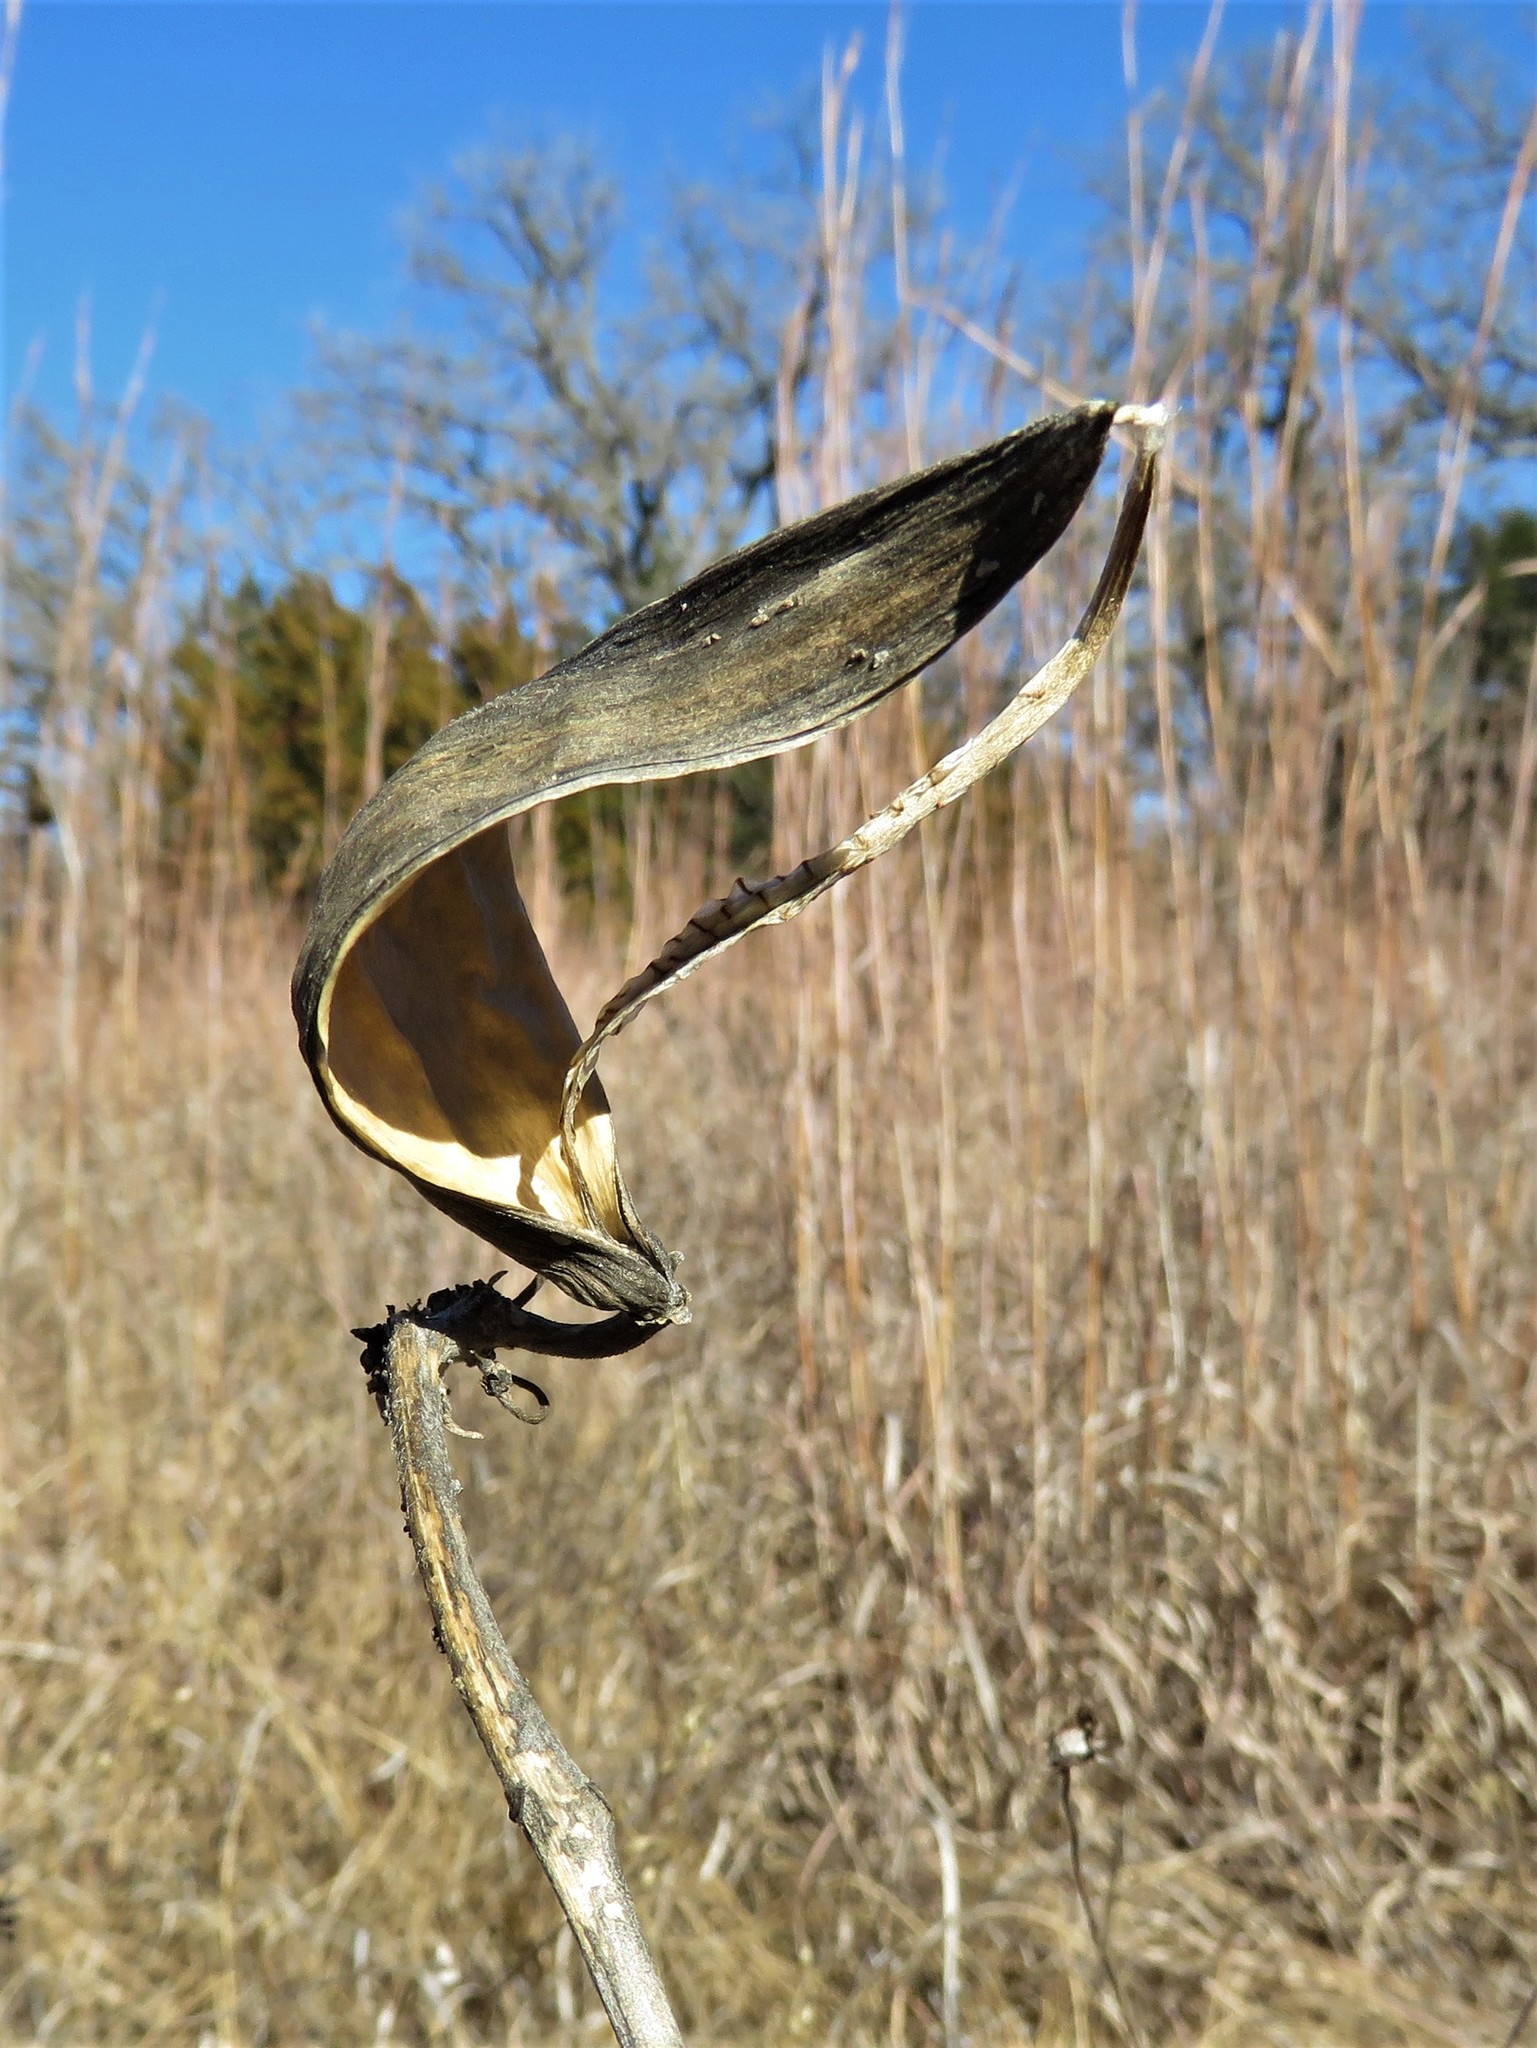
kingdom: Plantae
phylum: Tracheophyta
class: Magnoliopsida
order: Gentianales
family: Apocynaceae
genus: Asclepias
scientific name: Asclepias viridiflora
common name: Green comet milkweed
